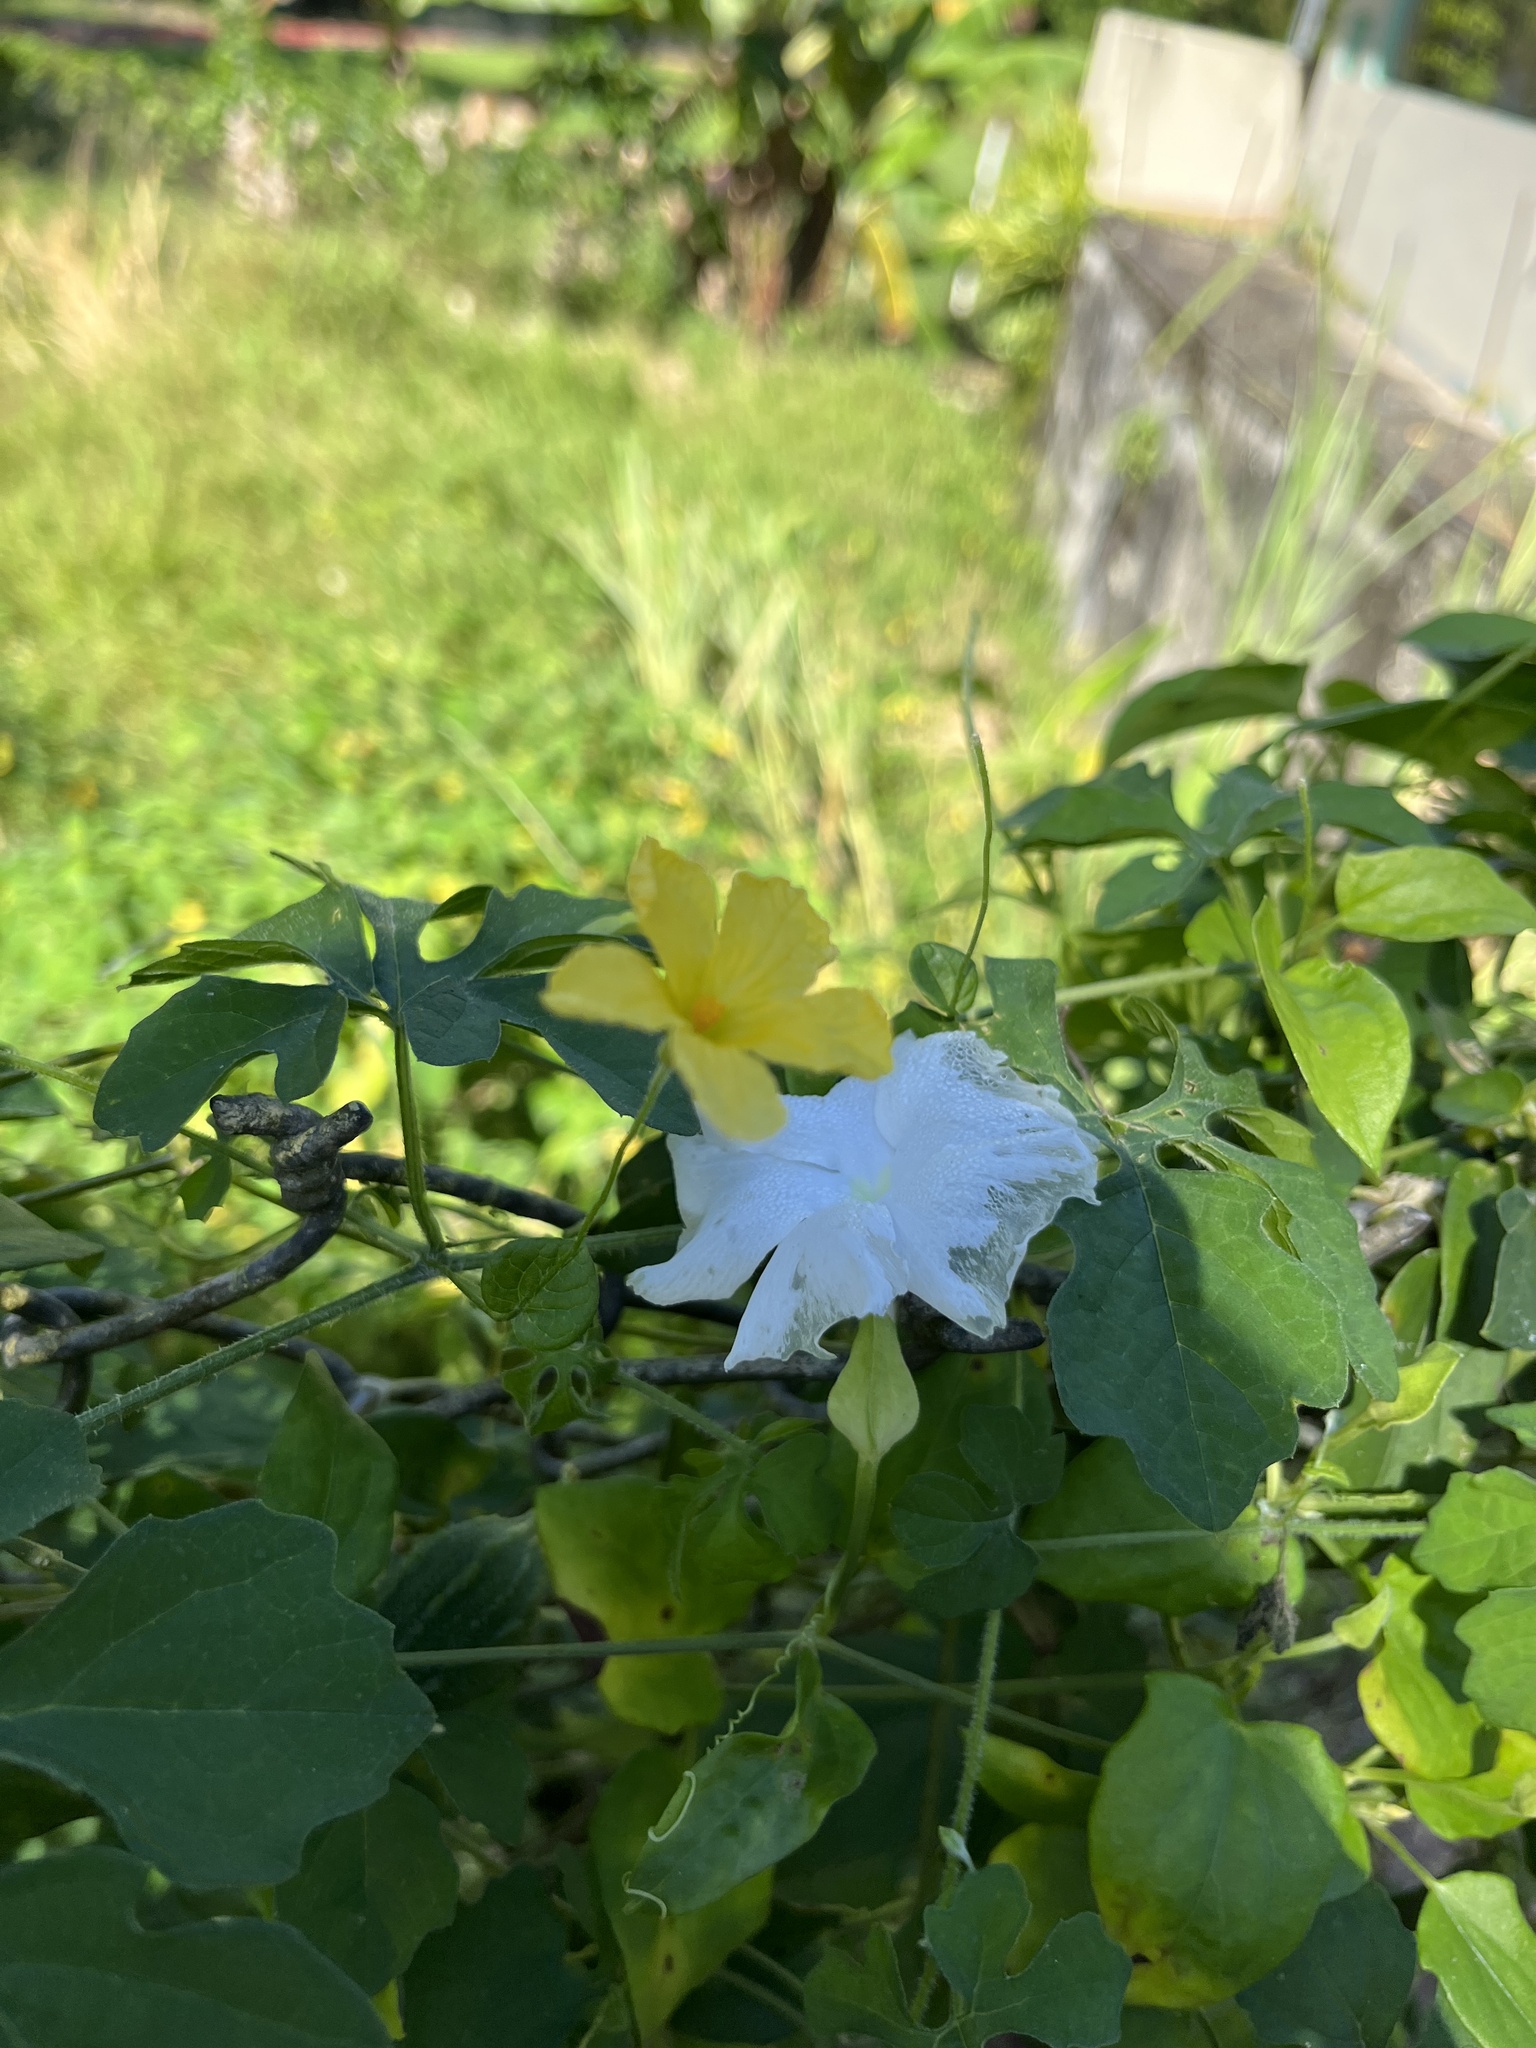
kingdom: Plantae
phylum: Tracheophyta
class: Magnoliopsida
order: Cucurbitales
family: Cucurbitaceae
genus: Momordica
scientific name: Momordica charantia
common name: Balsampear
